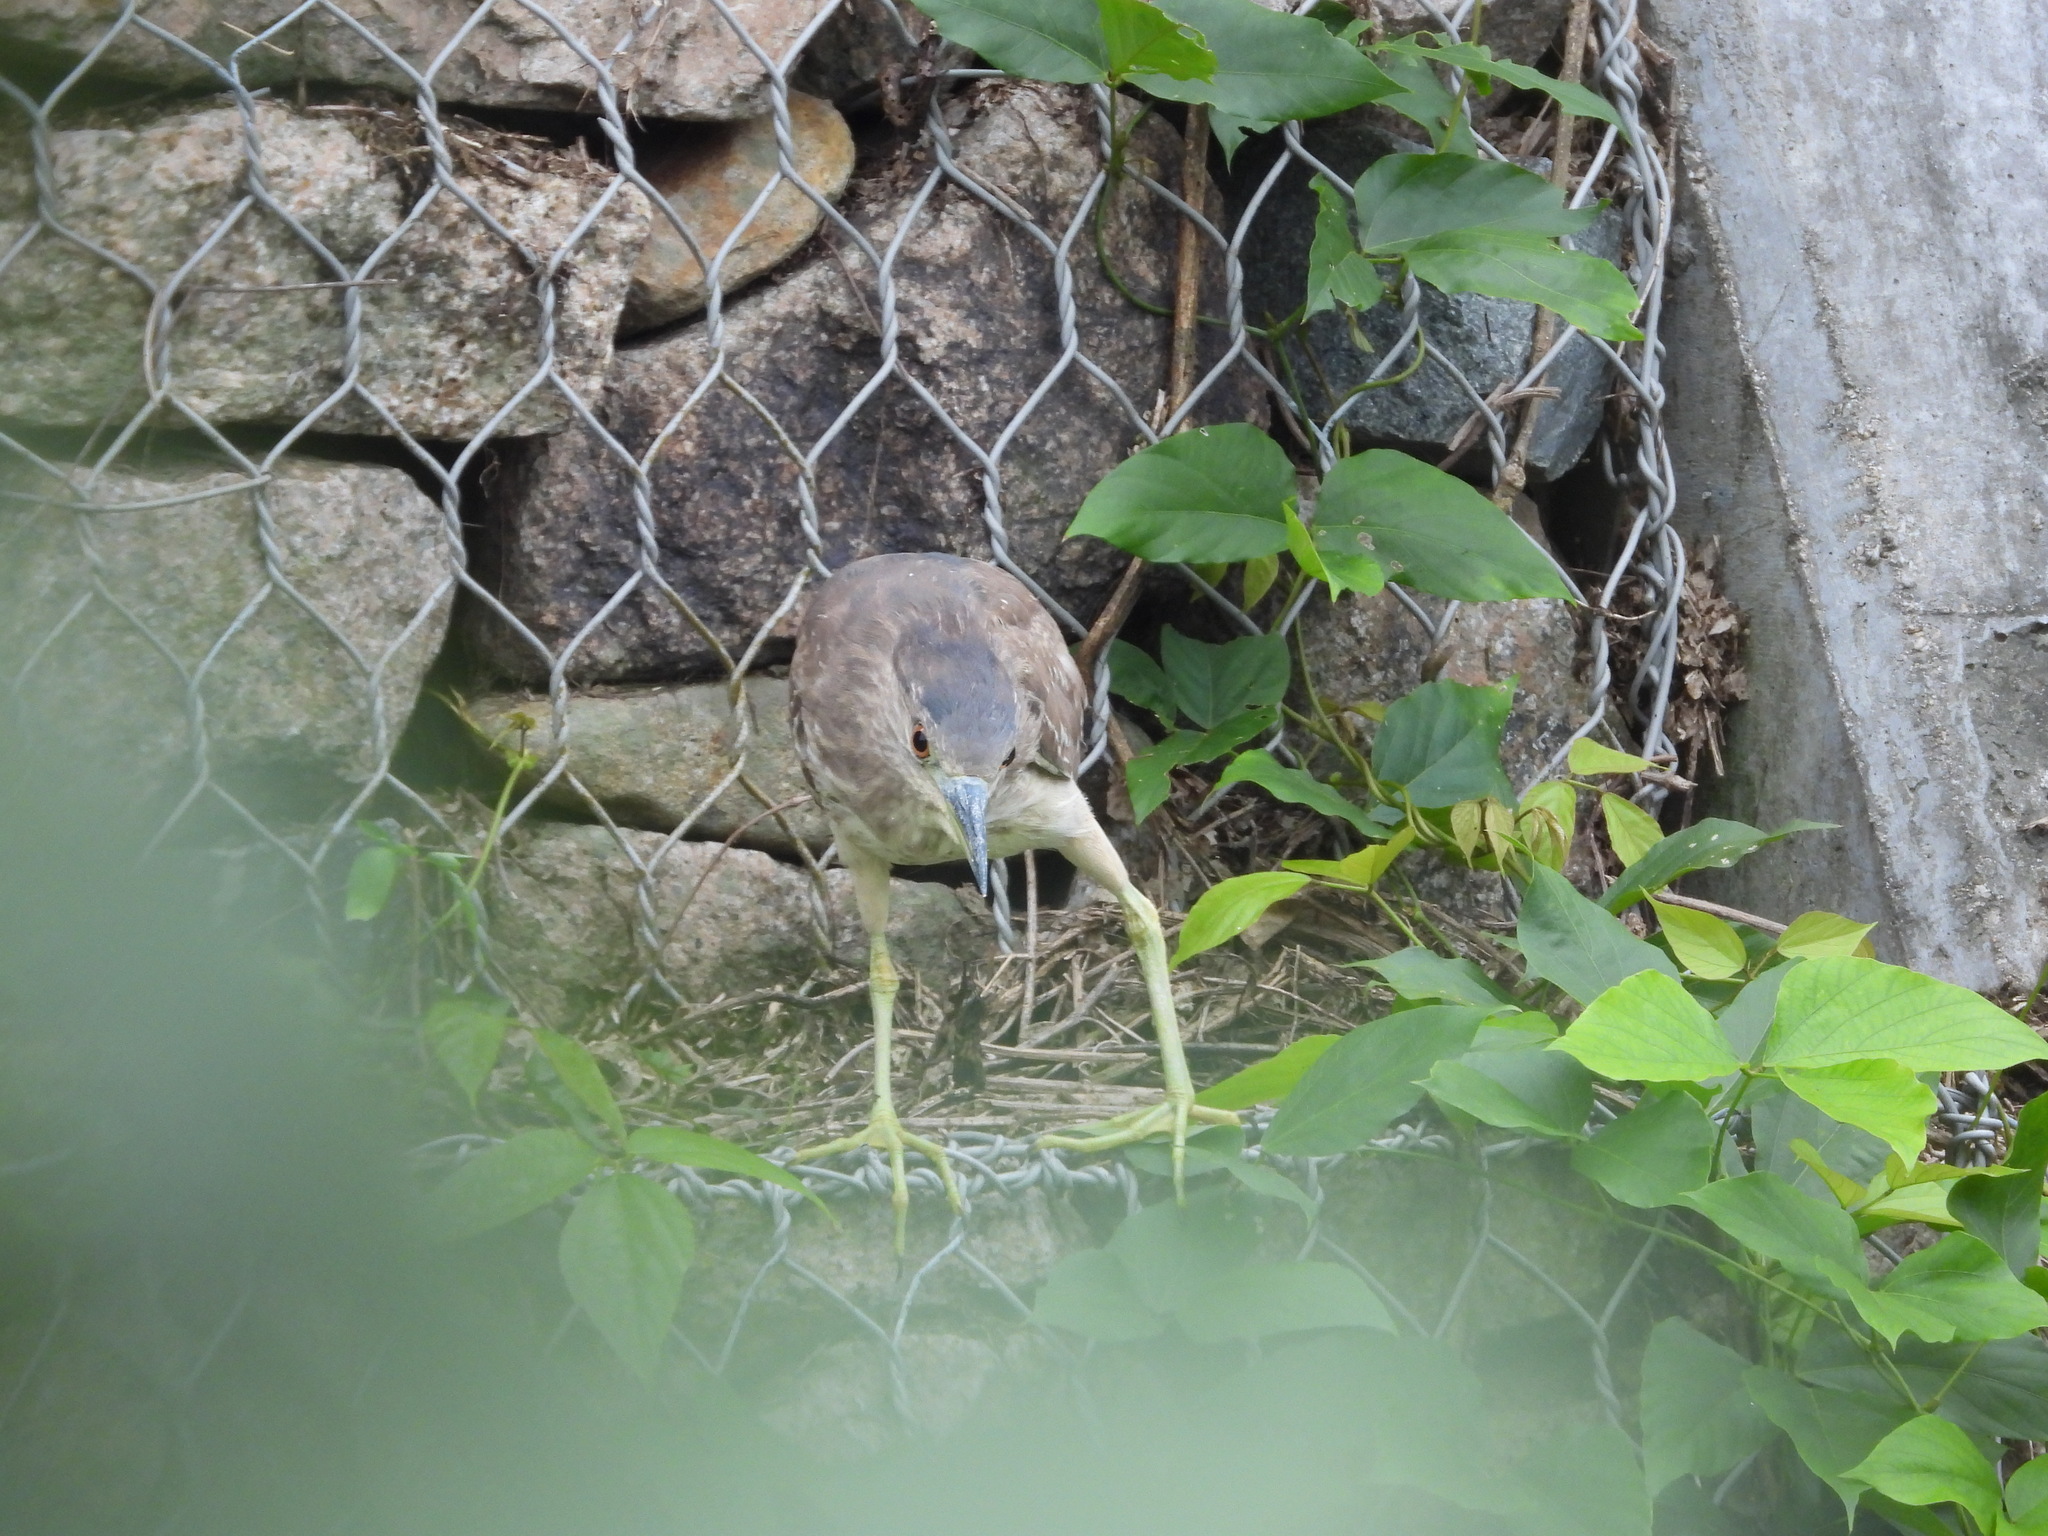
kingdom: Animalia
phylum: Chordata
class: Aves
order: Pelecaniformes
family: Ardeidae
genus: Nycticorax
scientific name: Nycticorax nycticorax
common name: Black-crowned night heron
